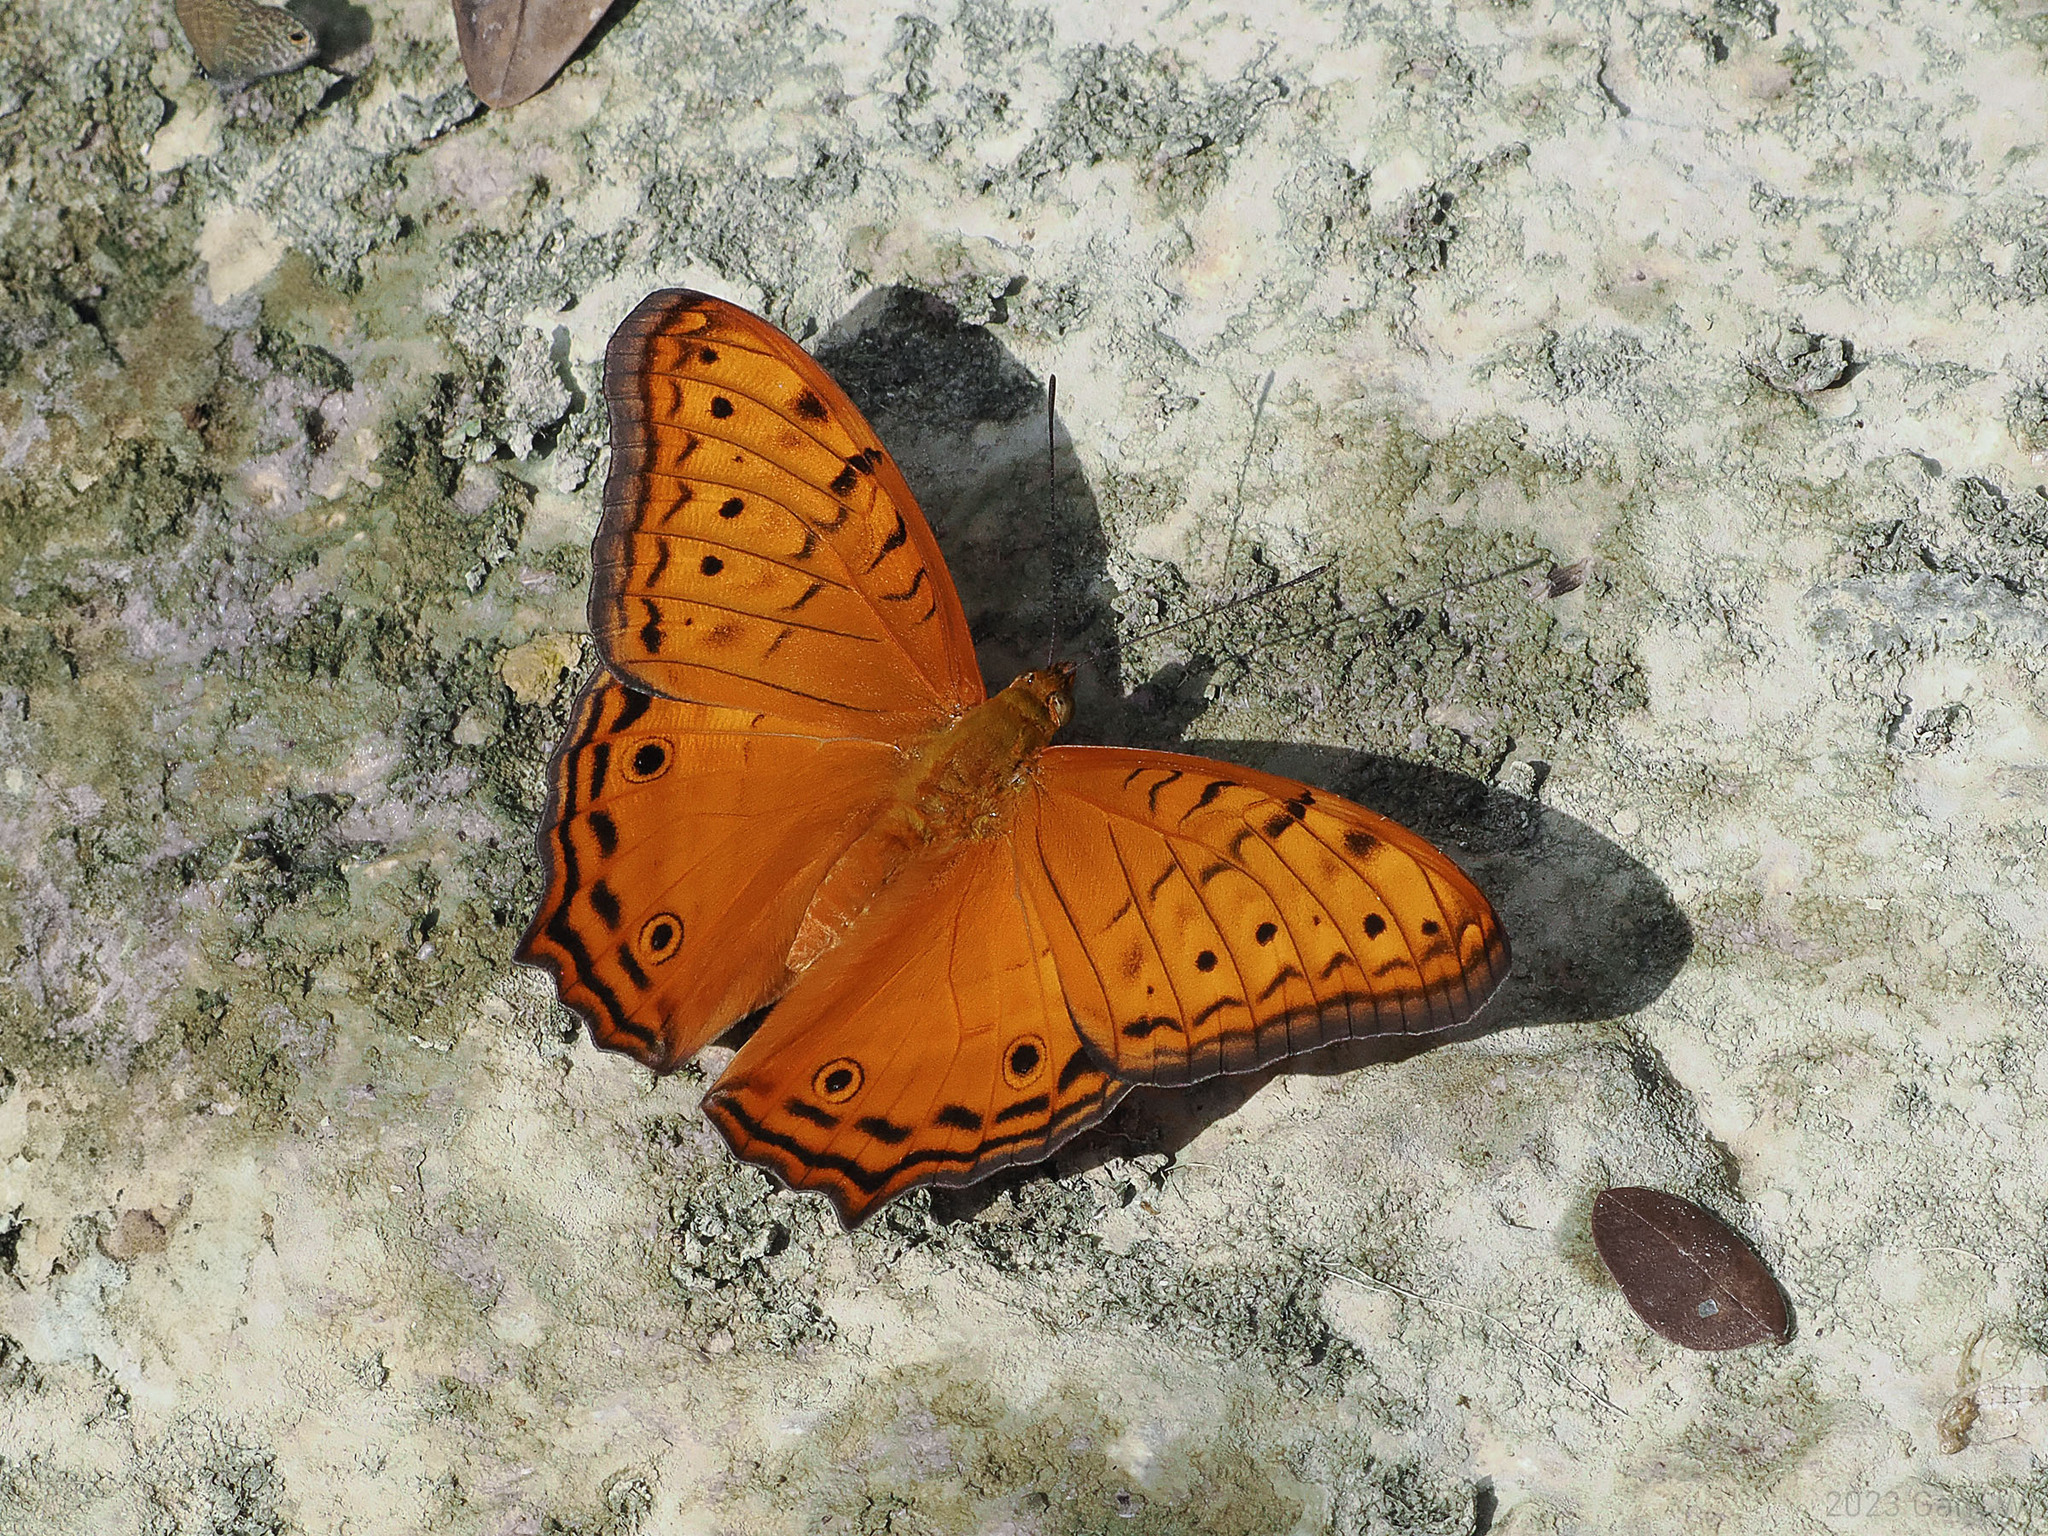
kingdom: Animalia
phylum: Arthropoda
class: Insecta
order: Lepidoptera
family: Nymphalidae
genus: Vindula
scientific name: Vindula arsinoe
